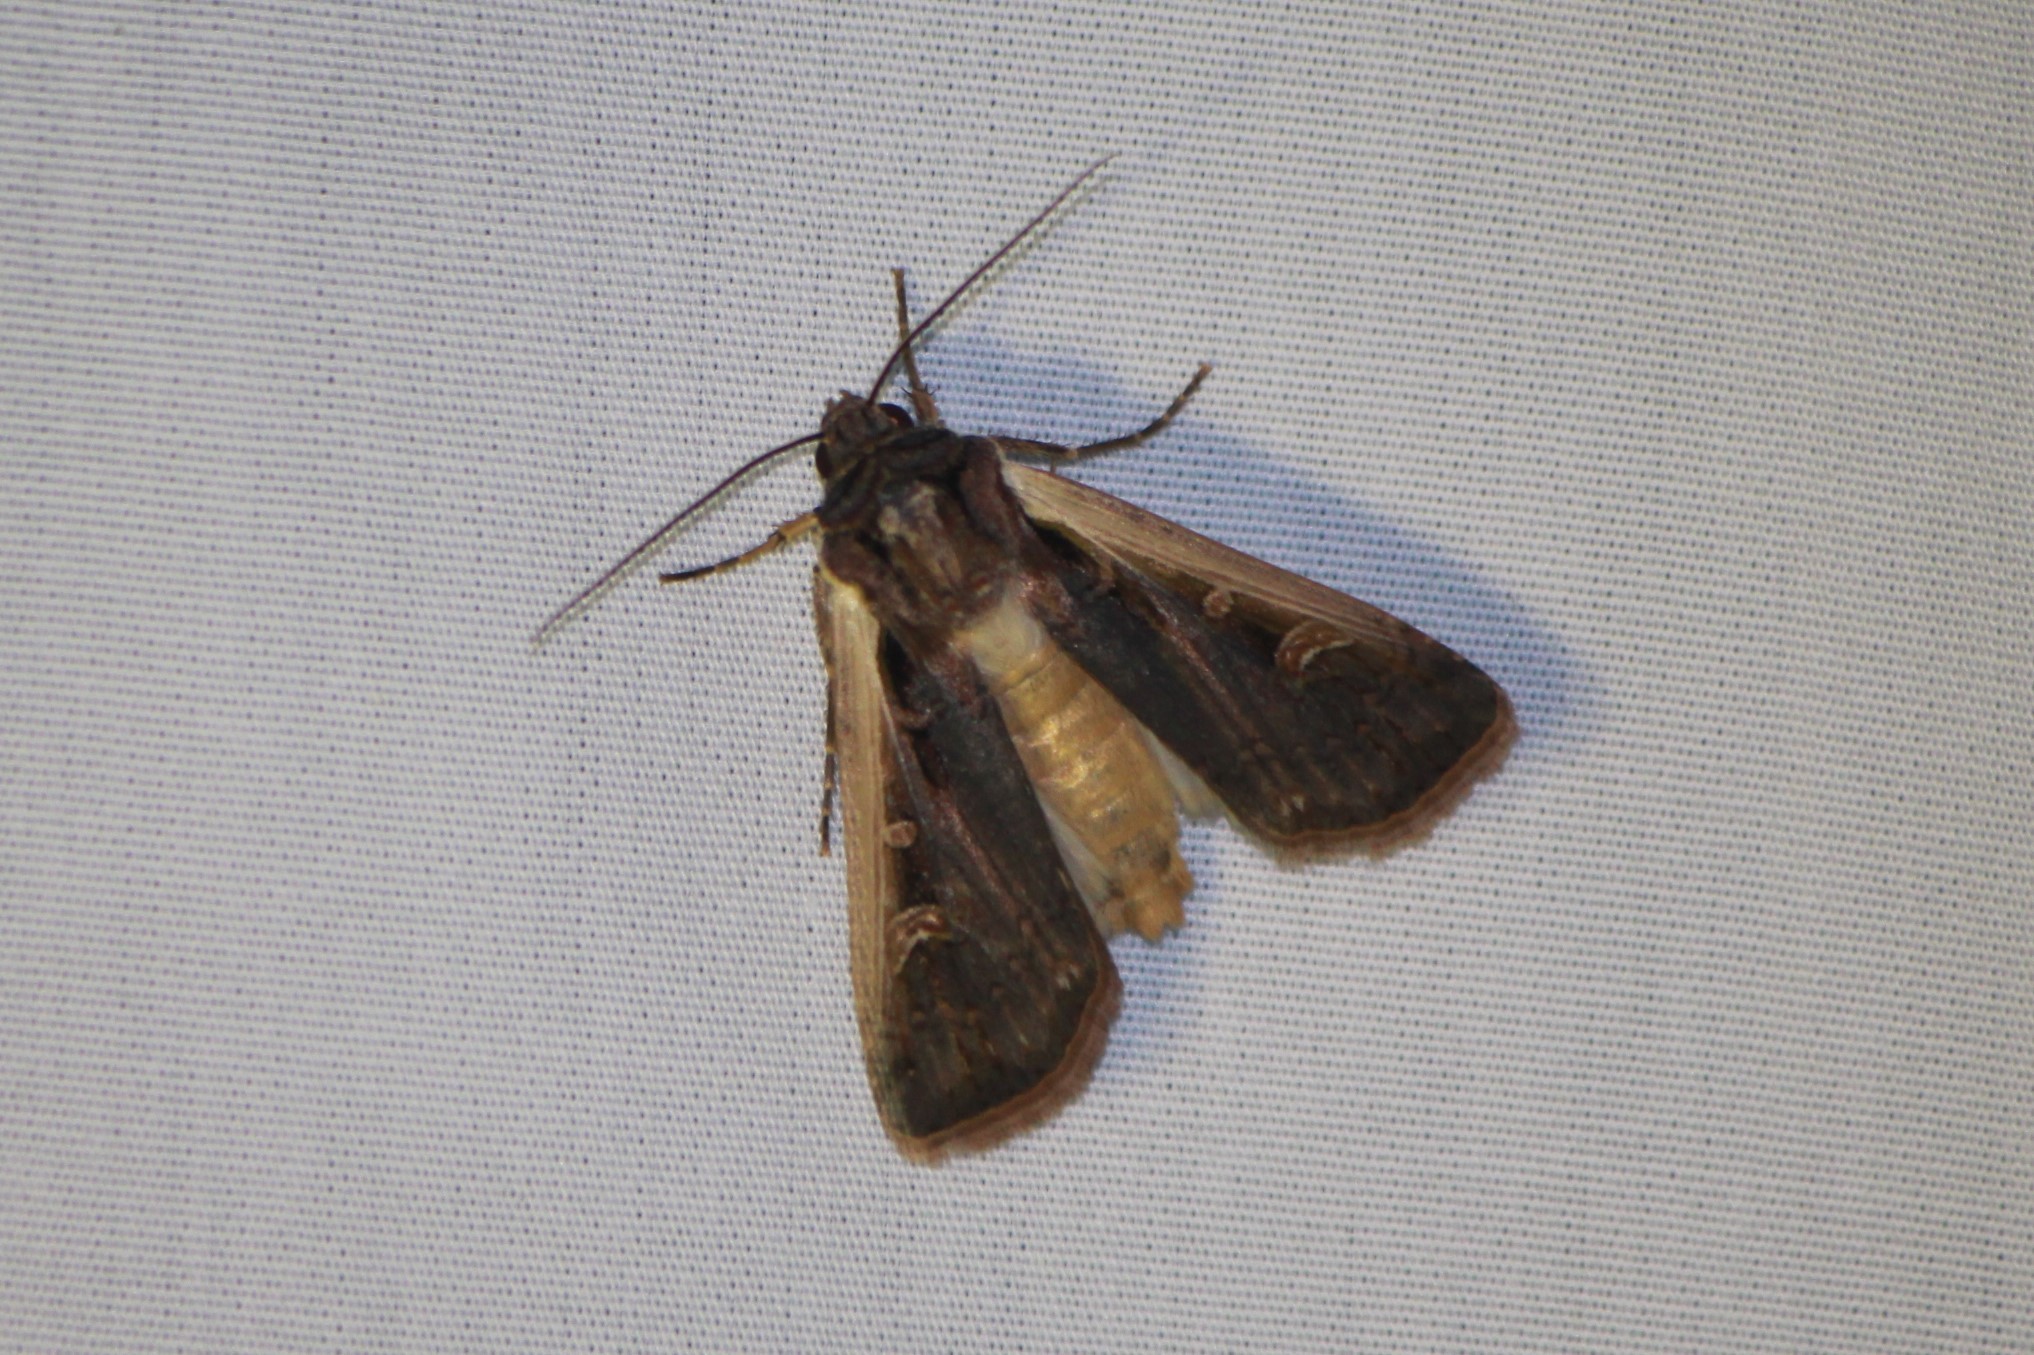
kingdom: Animalia
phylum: Arthropoda
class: Insecta
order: Lepidoptera
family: Noctuidae
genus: Striacosta
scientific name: Striacosta albicosta
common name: Western bean cutworm moth
